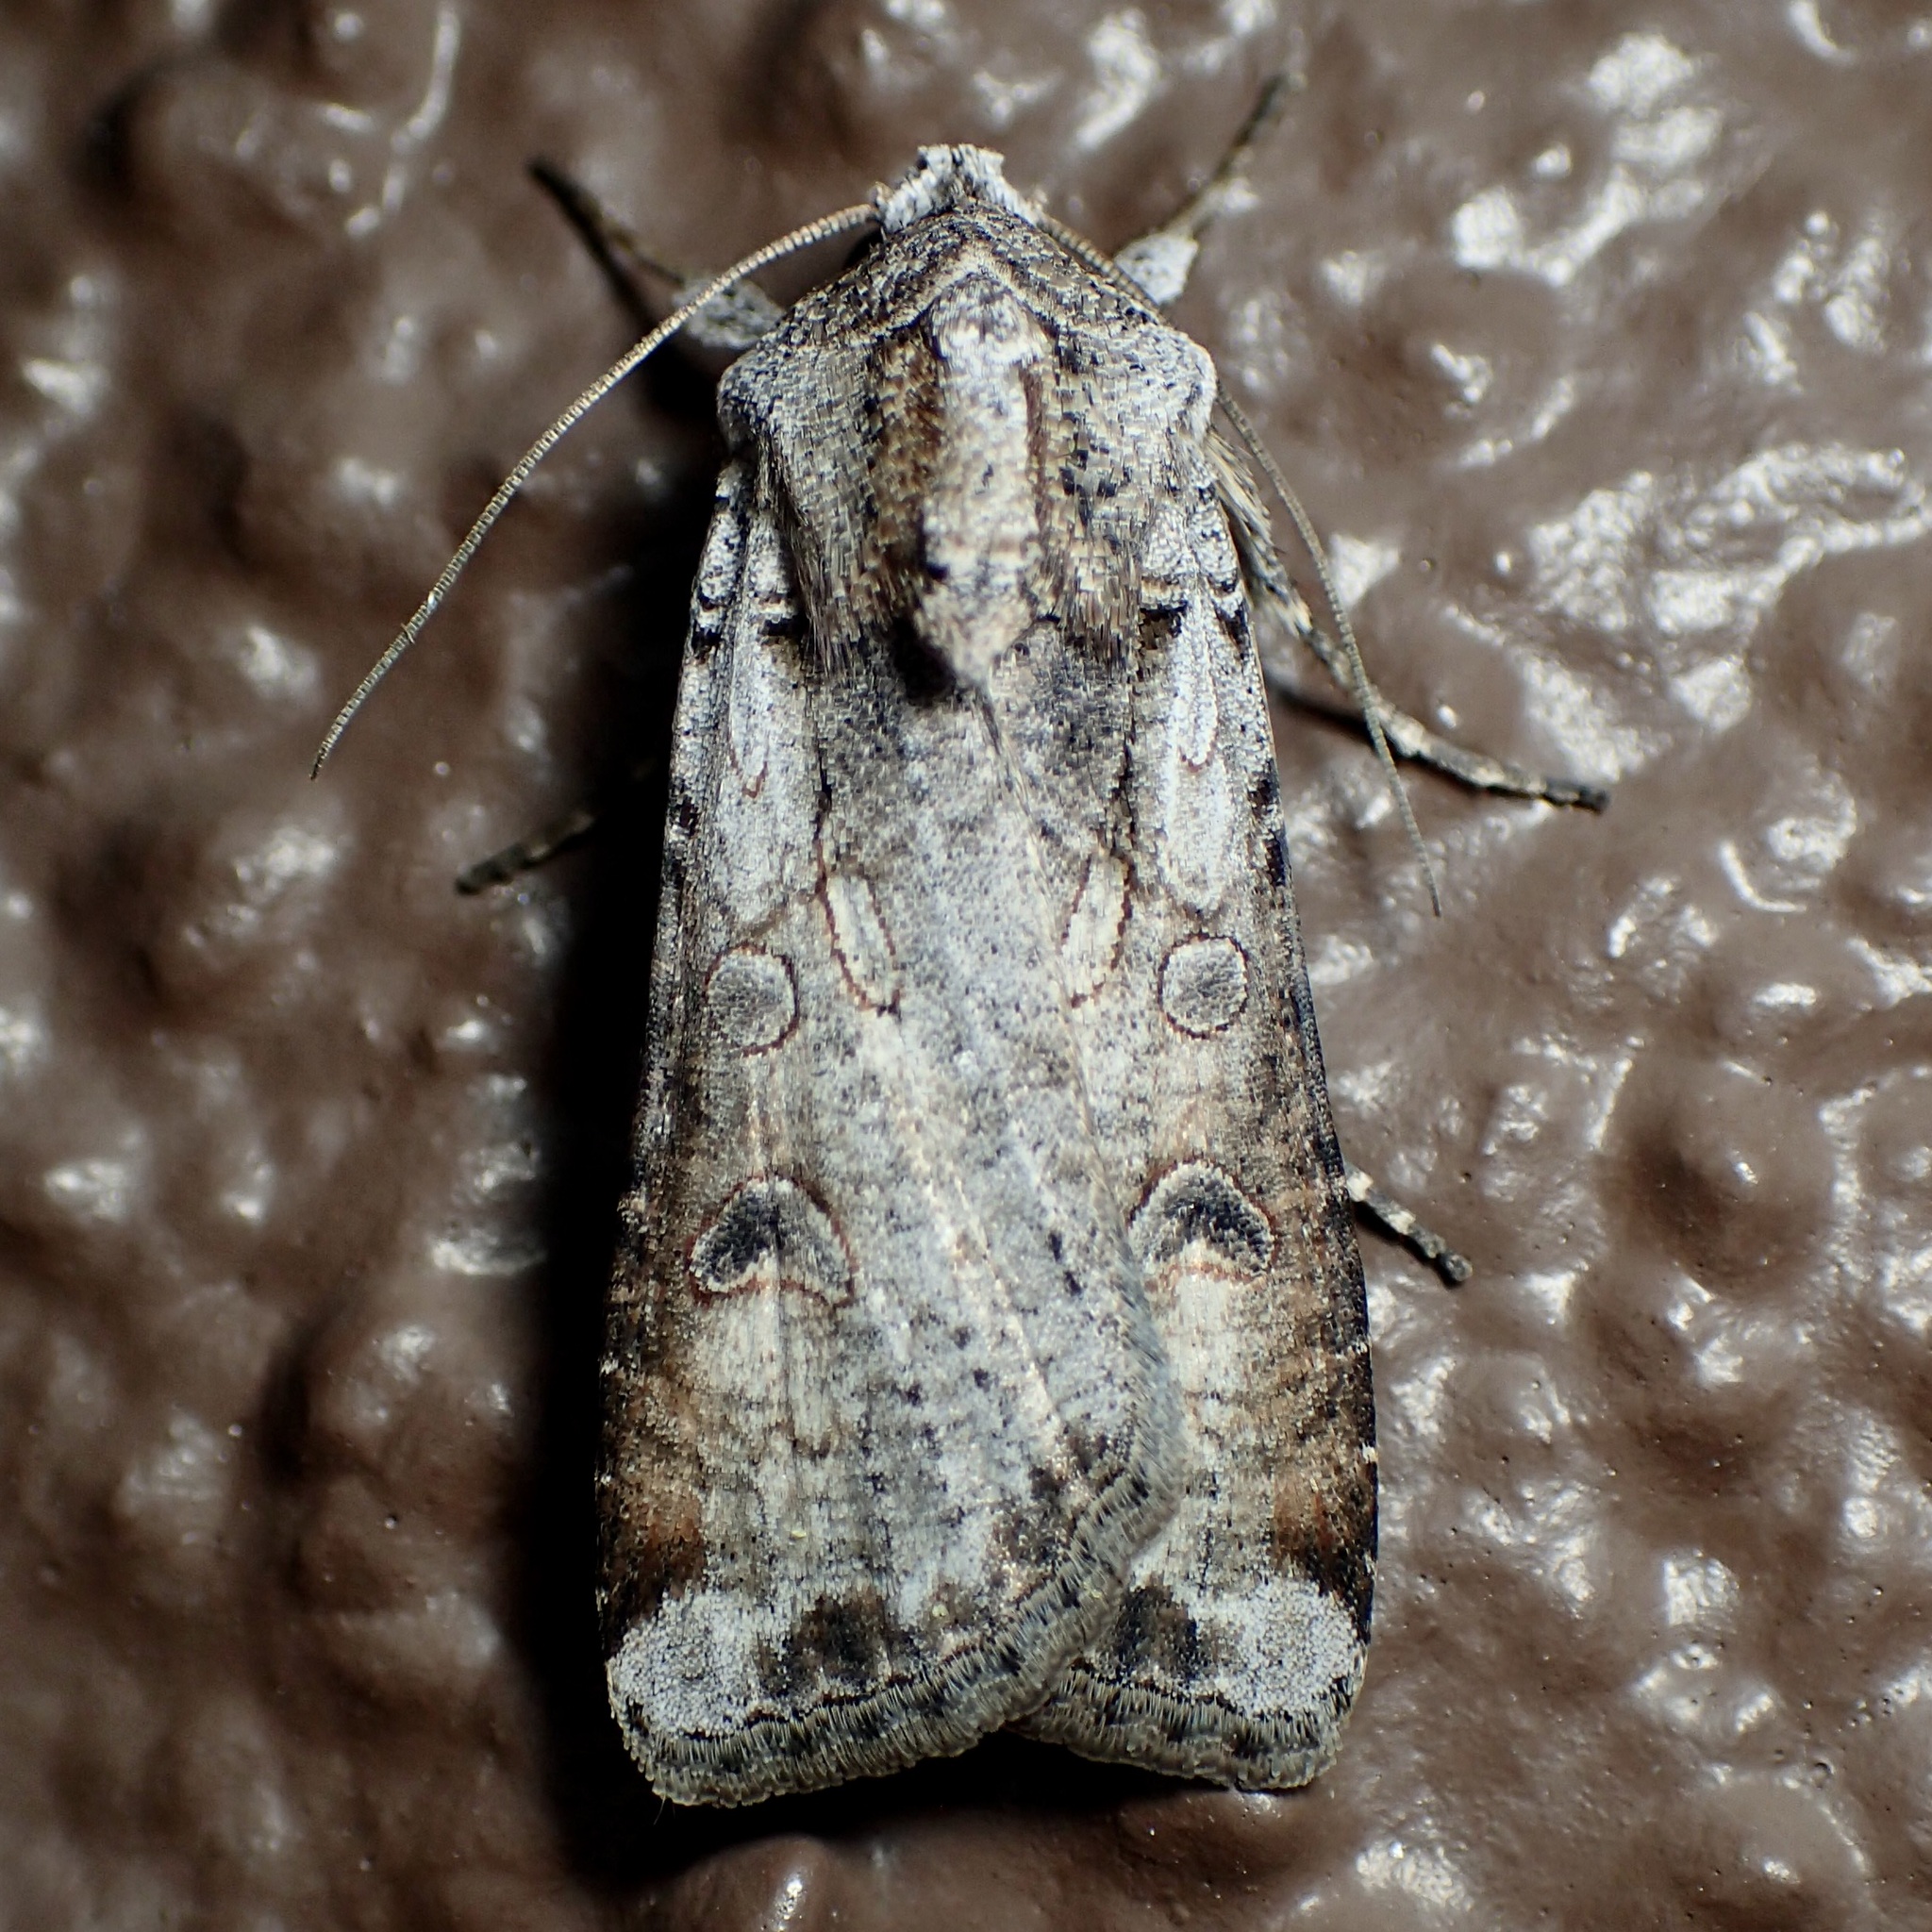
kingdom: Animalia
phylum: Arthropoda
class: Insecta
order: Lepidoptera
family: Noctuidae
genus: Hemieuxoa
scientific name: Hemieuxoa rudens
